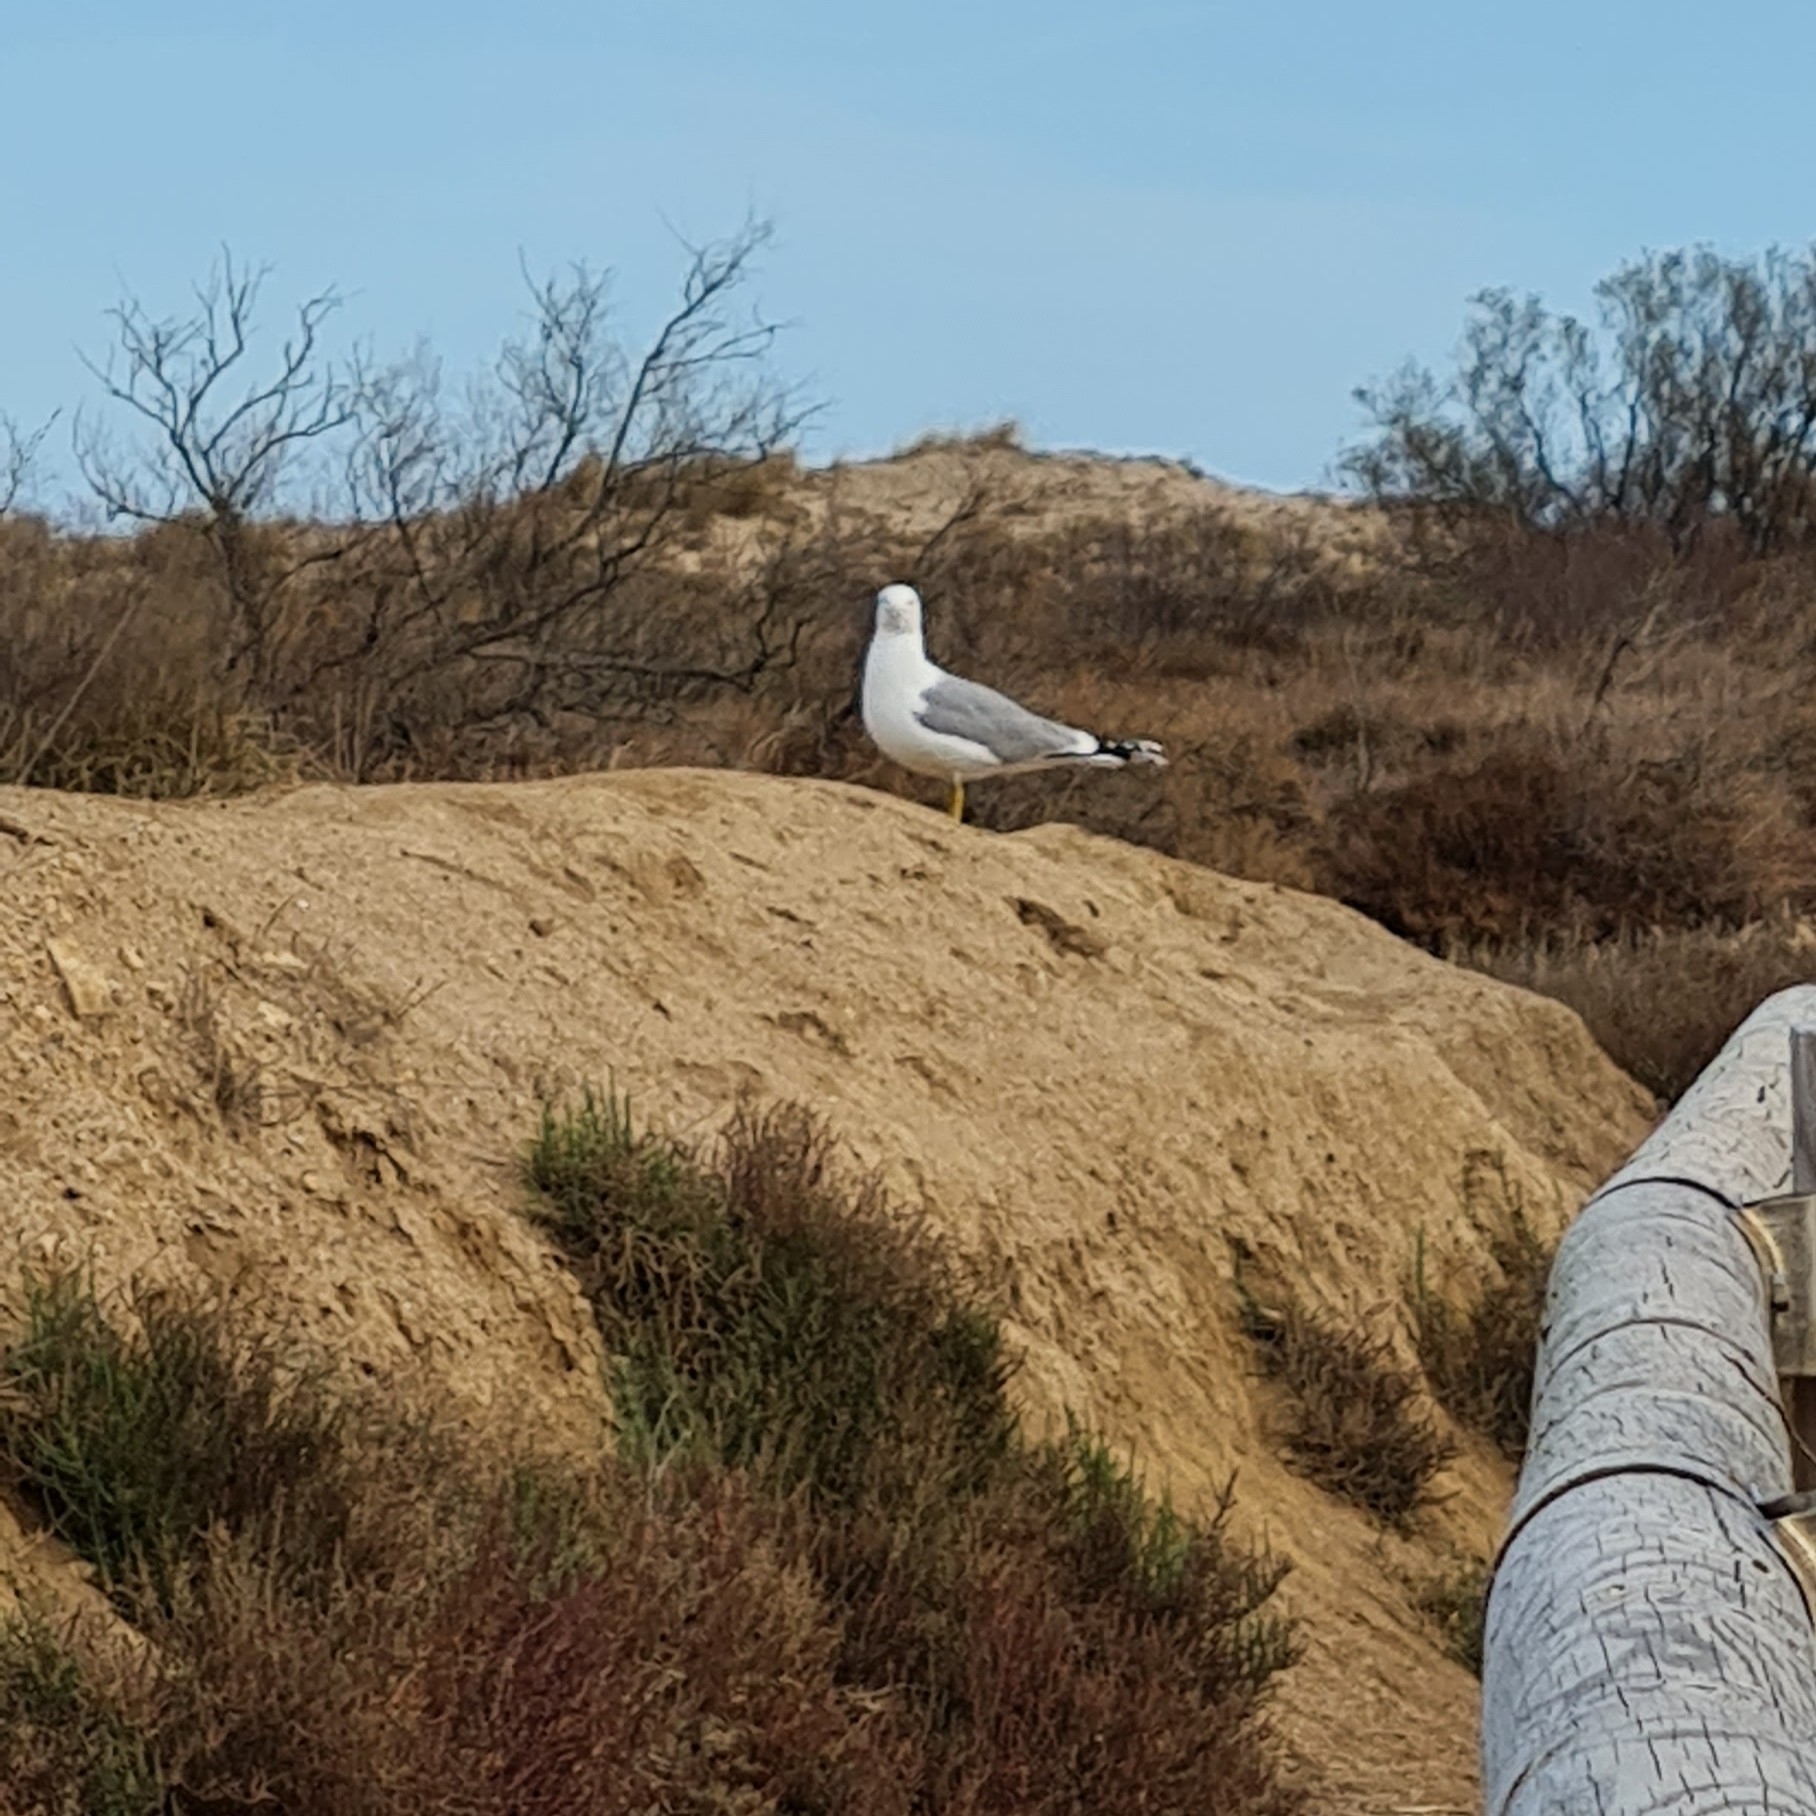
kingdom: Animalia
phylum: Chordata
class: Aves
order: Charadriiformes
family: Laridae
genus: Larus
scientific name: Larus michahellis
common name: Yellow-legged gull
